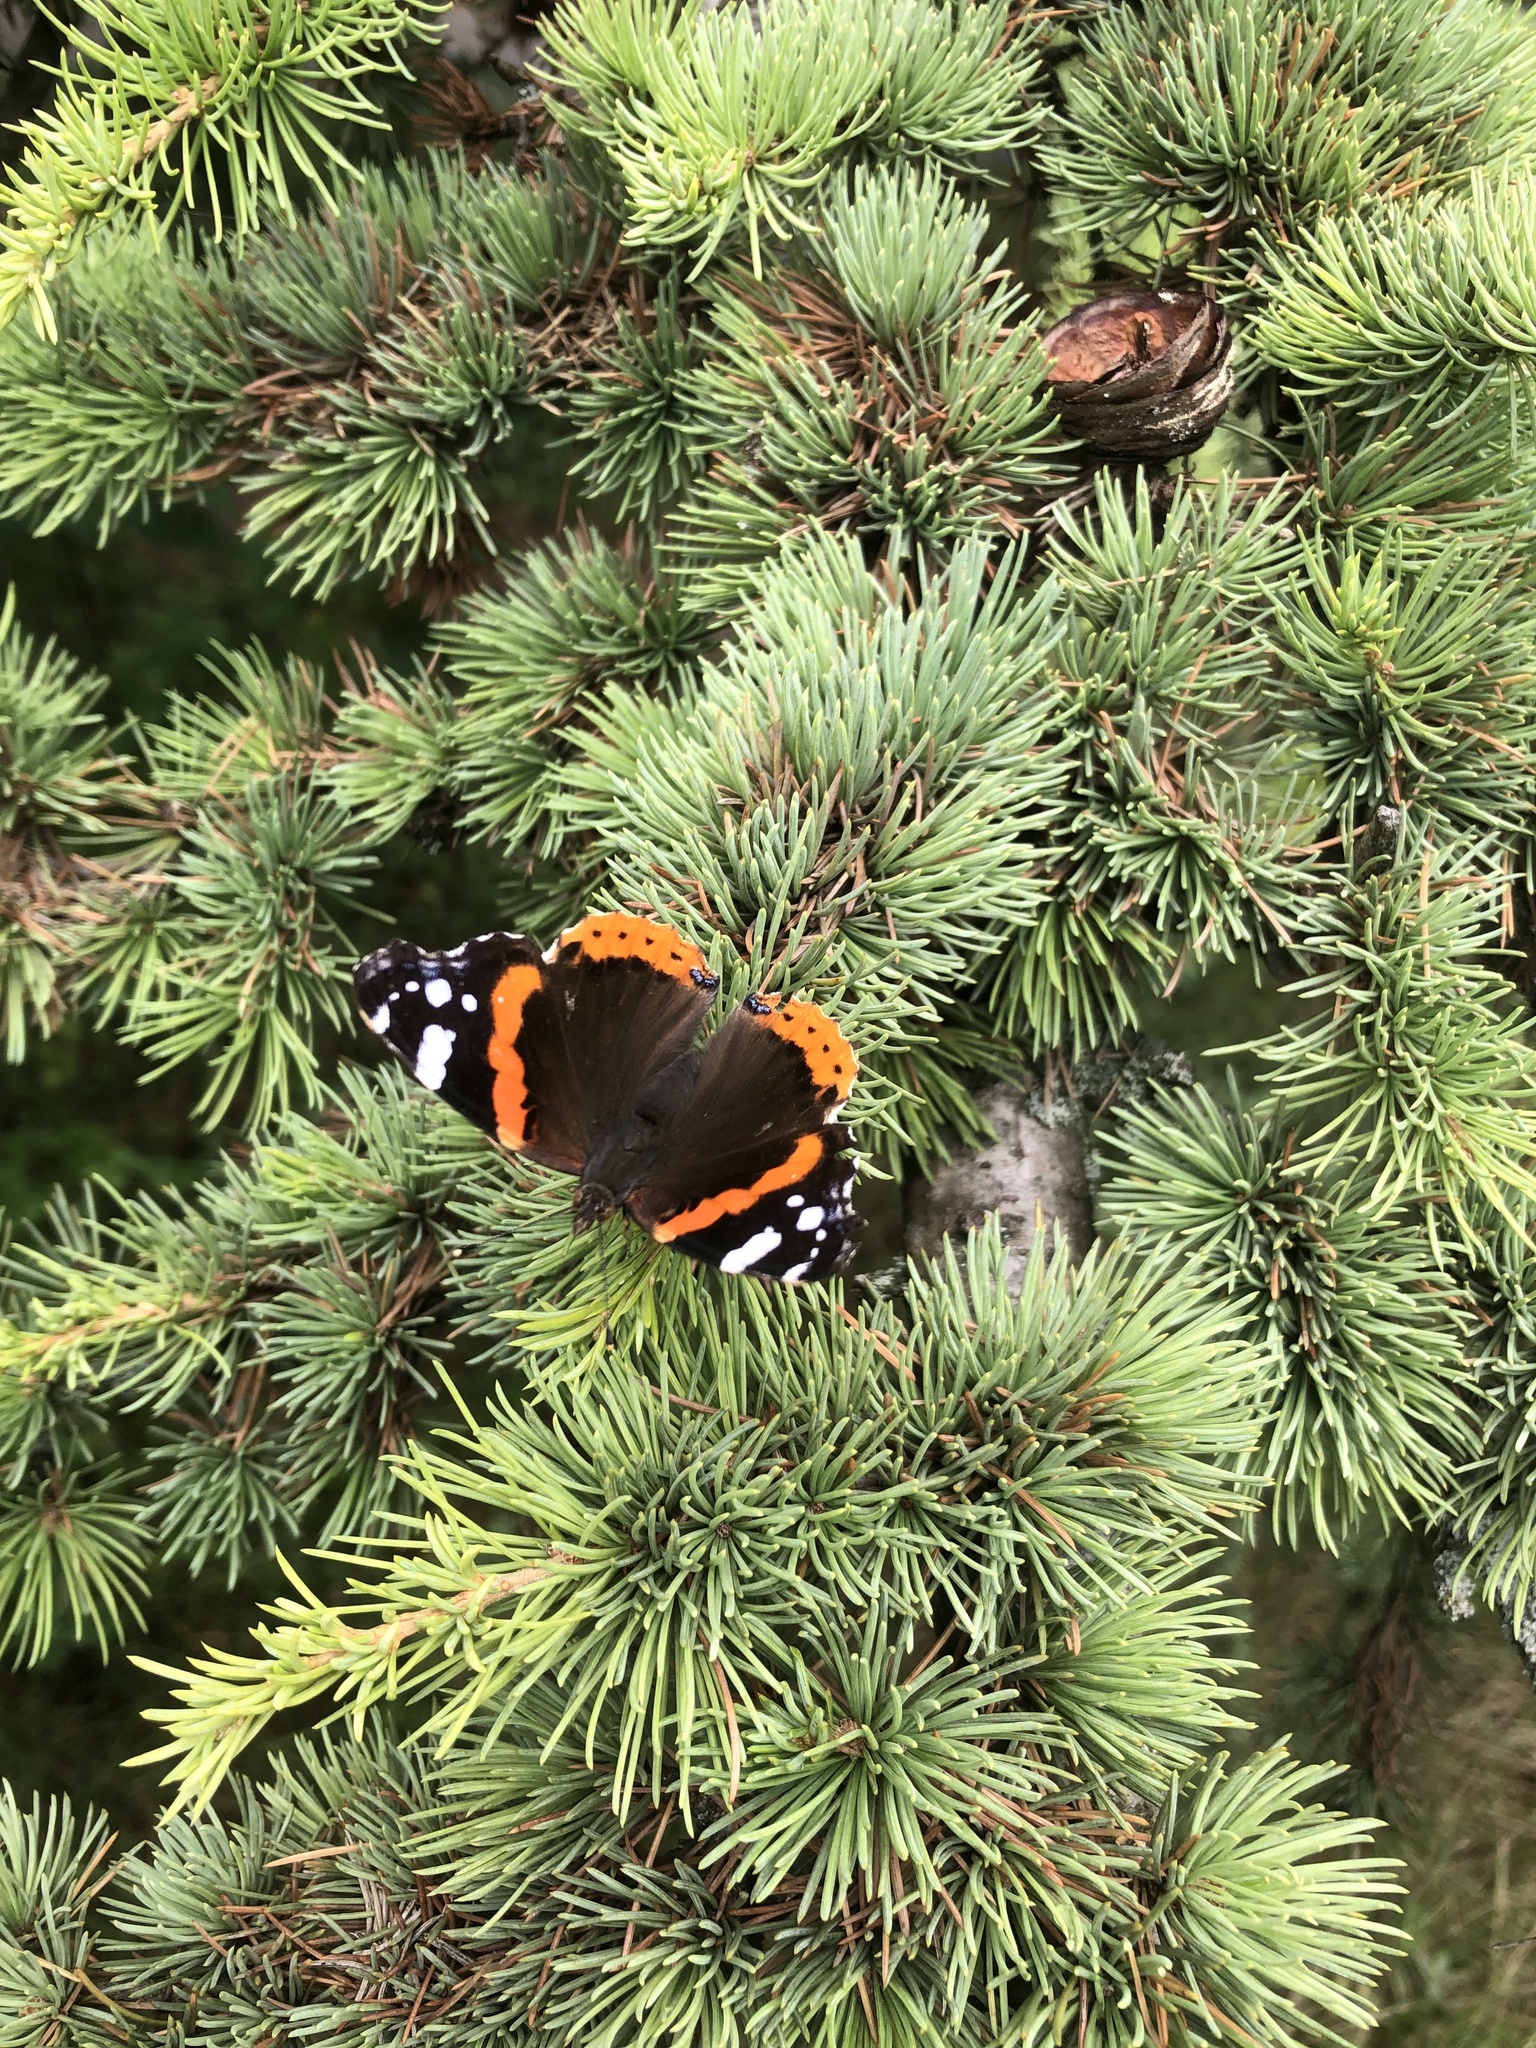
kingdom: Animalia
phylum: Arthropoda
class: Insecta
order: Lepidoptera
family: Nymphalidae
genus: Vanessa
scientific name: Vanessa atalanta
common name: Red admiral
